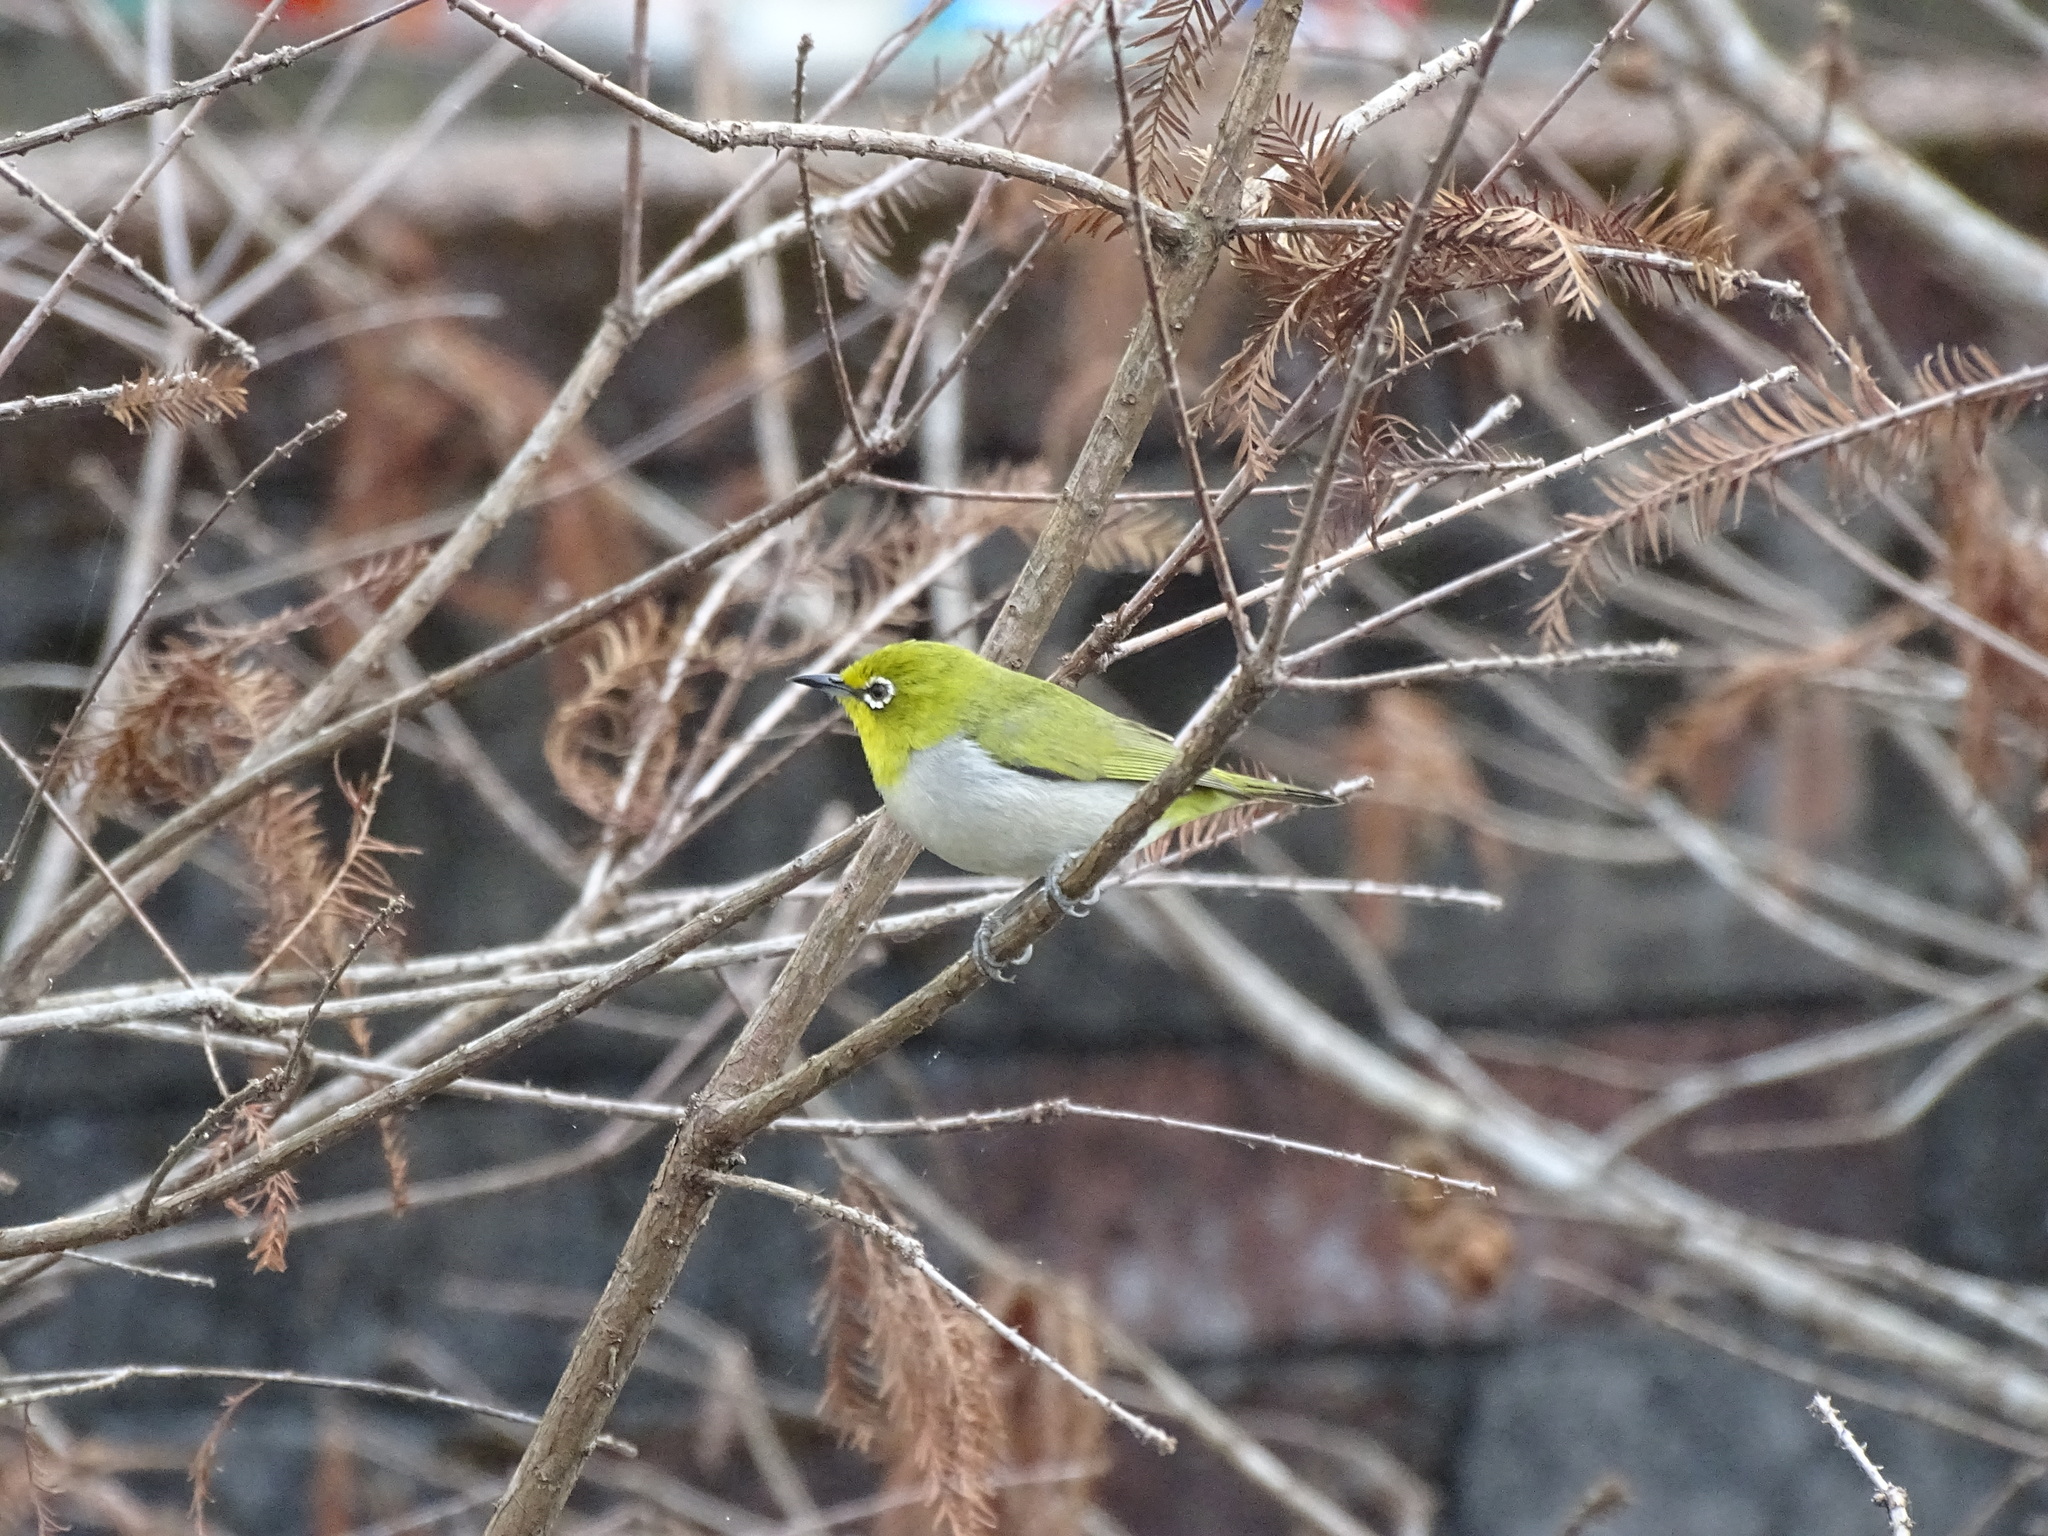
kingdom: Animalia
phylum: Chordata
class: Aves
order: Passeriformes
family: Zosteropidae
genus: Zosterops
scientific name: Zosterops simplex
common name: Swinhoe's white-eye
